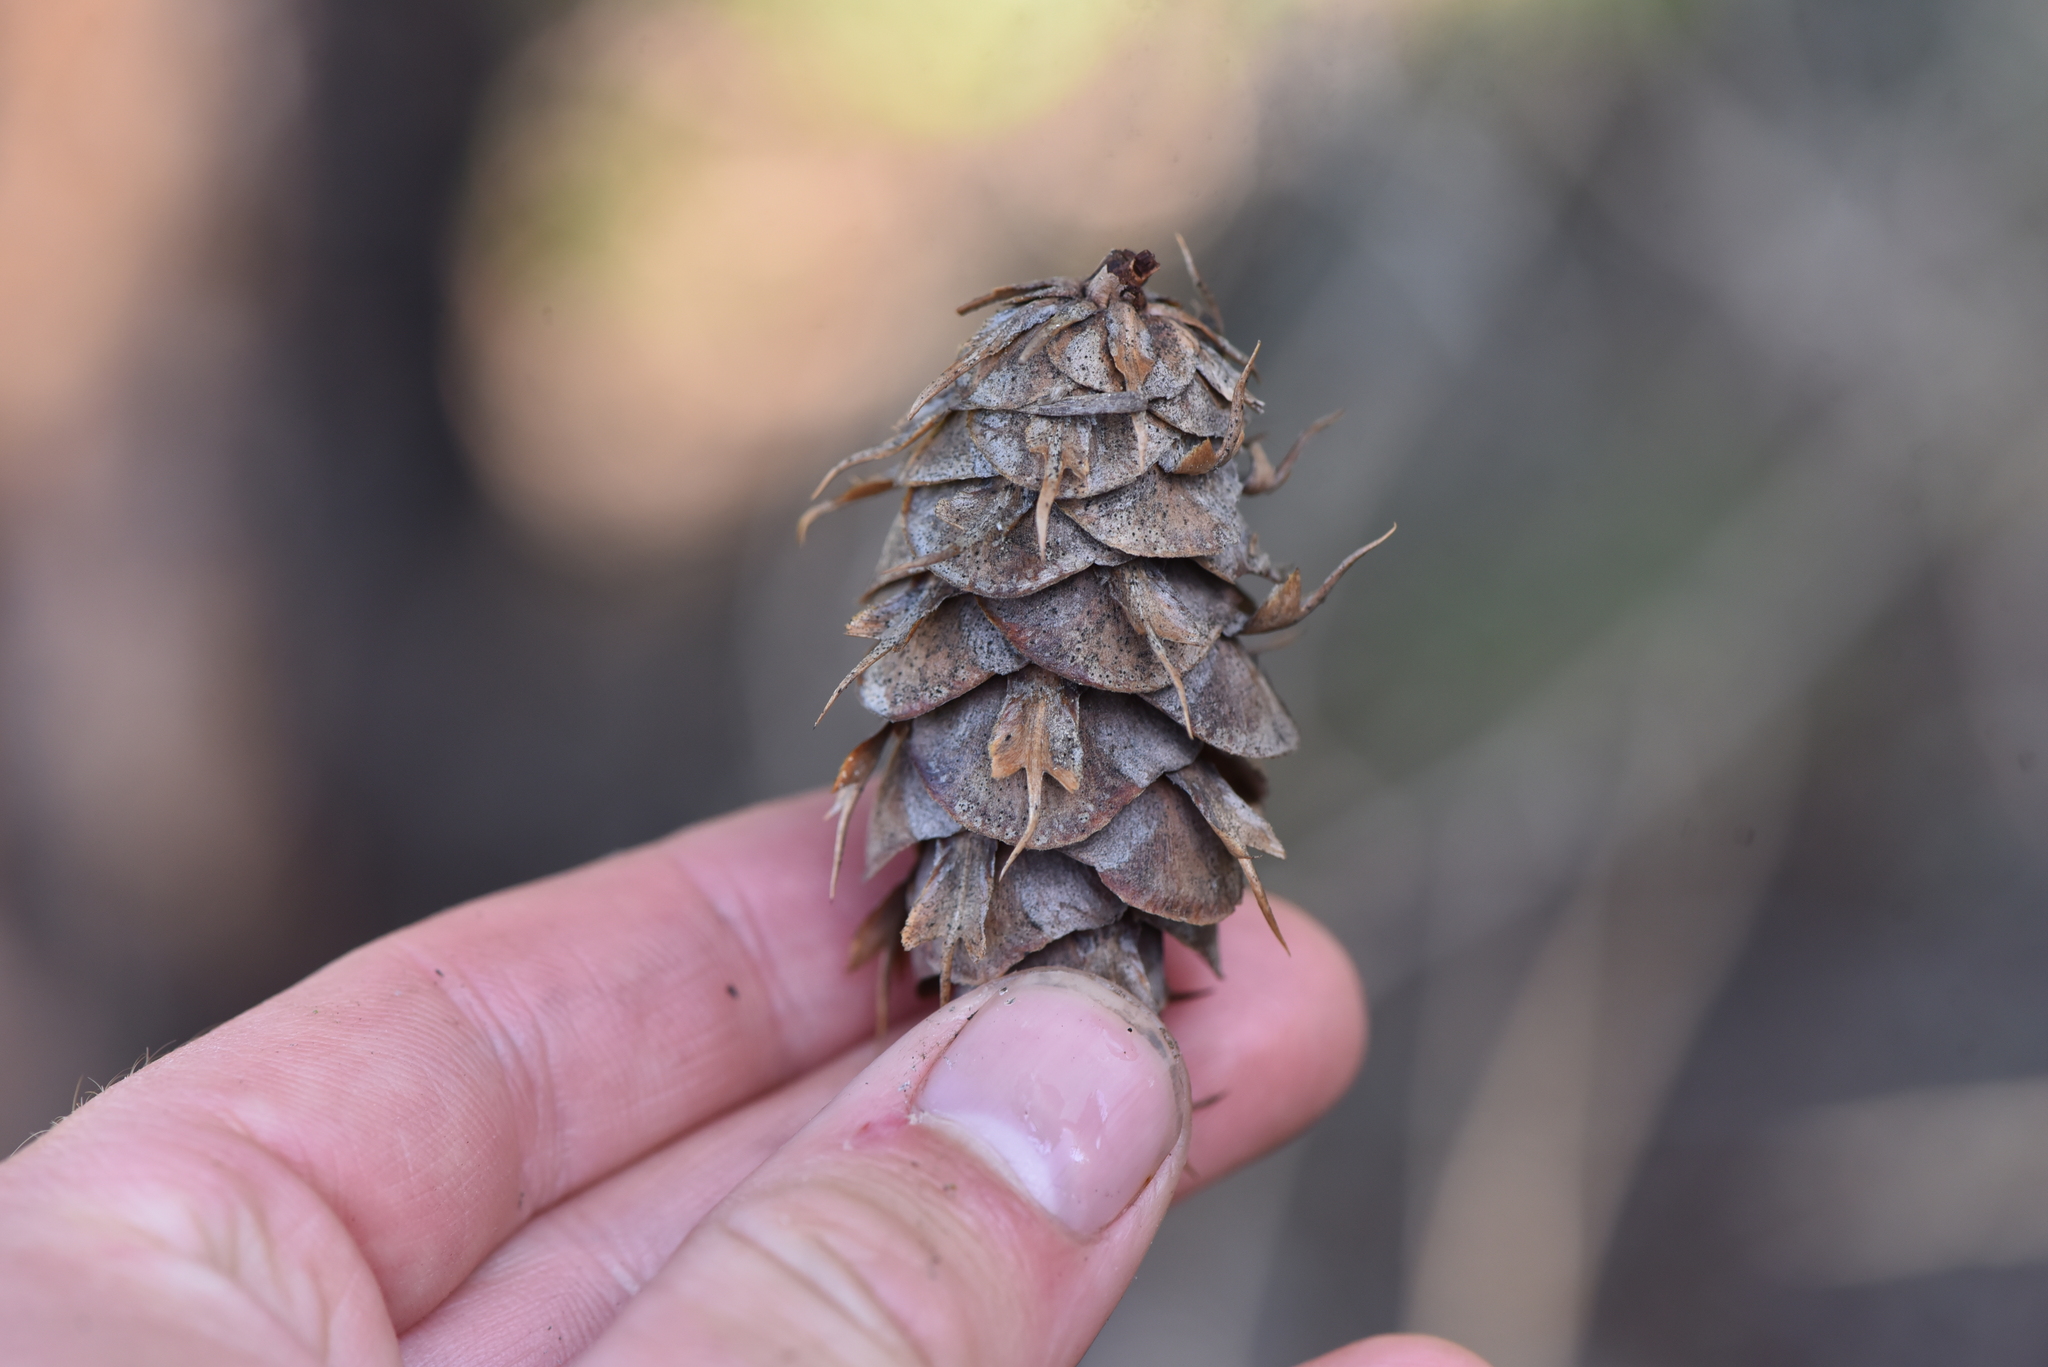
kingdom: Plantae
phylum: Tracheophyta
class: Pinopsida
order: Pinales
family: Pinaceae
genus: Pseudotsuga
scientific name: Pseudotsuga menziesii
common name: Douglas fir
